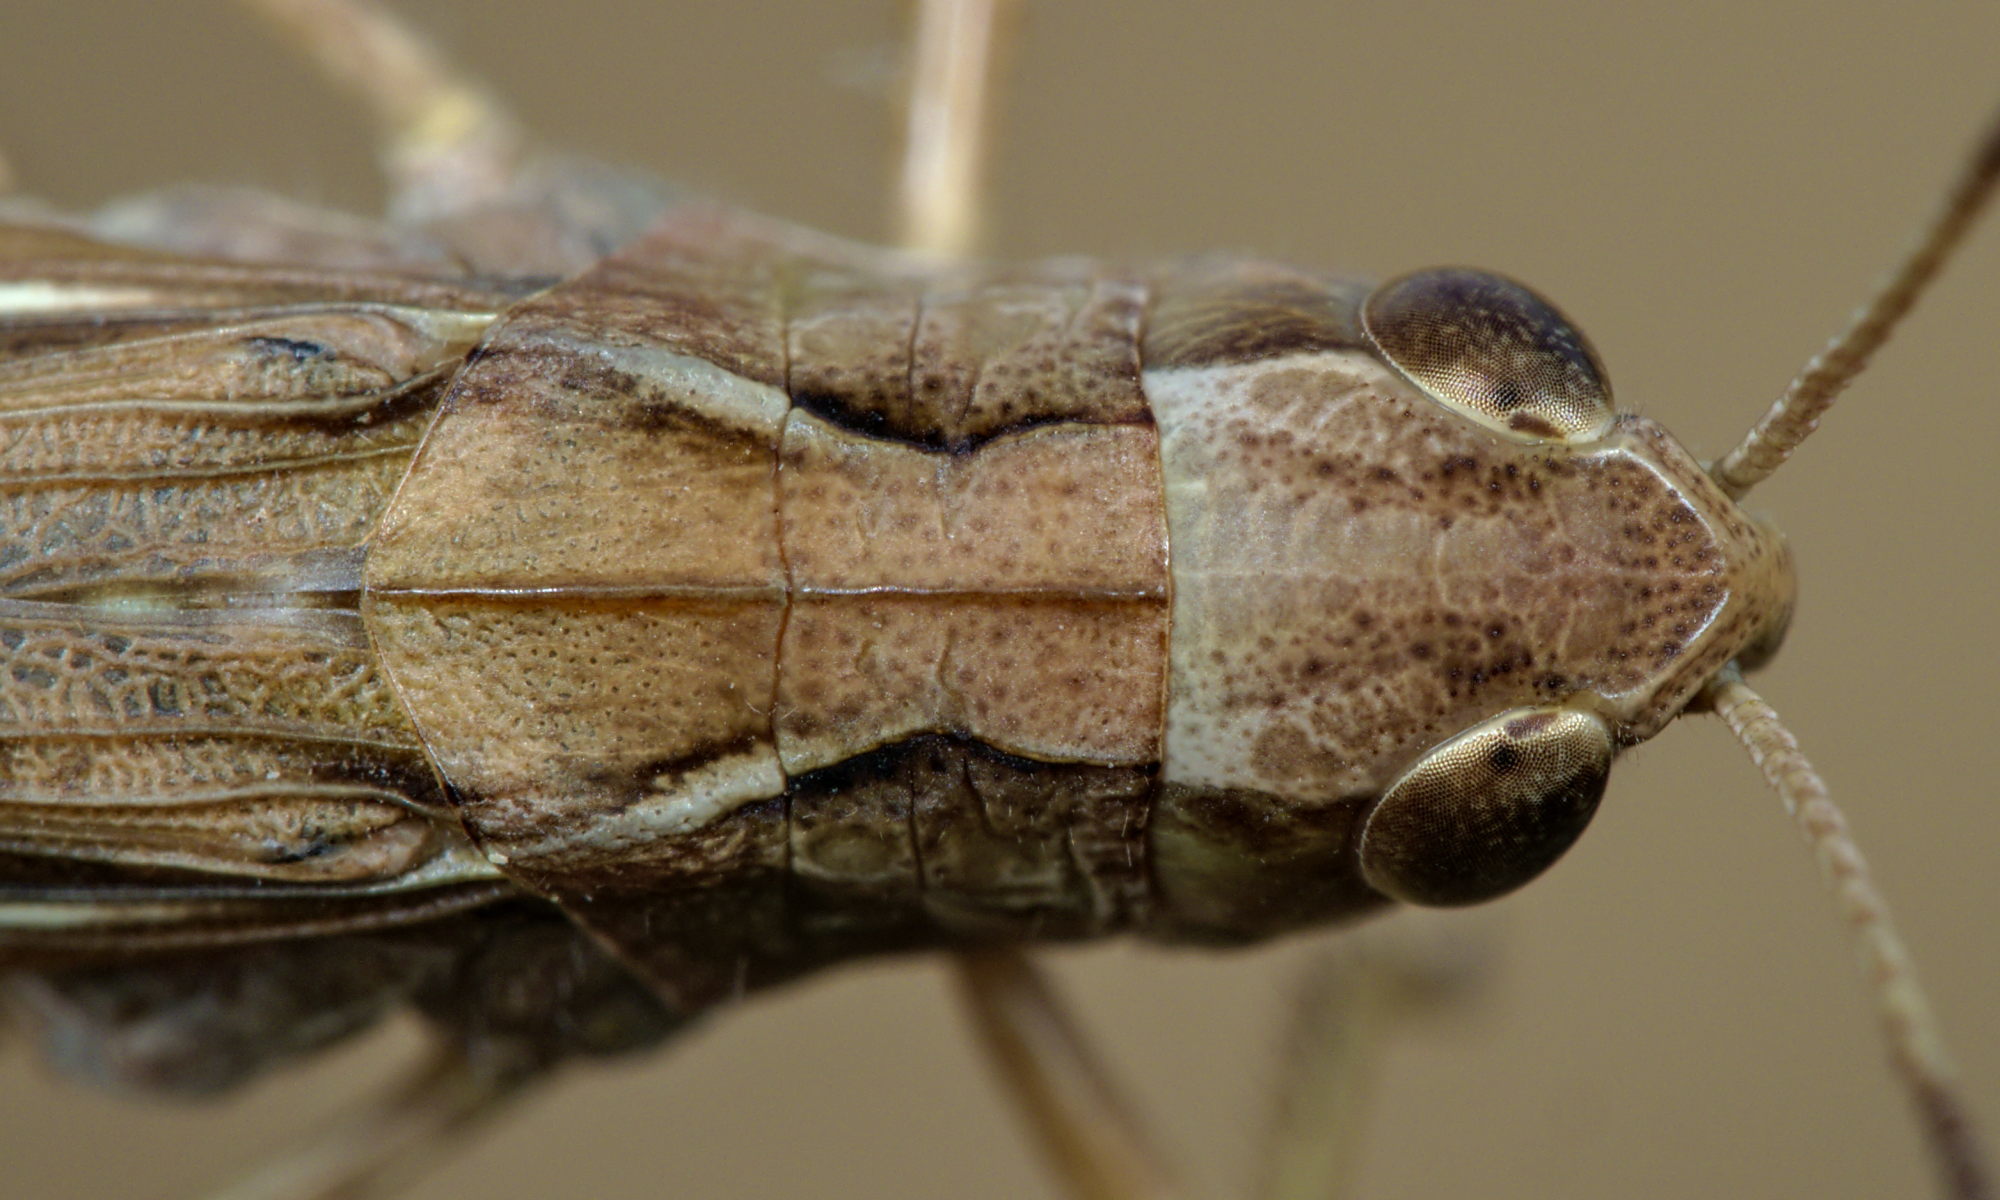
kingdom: Animalia
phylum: Arthropoda
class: Insecta
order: Orthoptera
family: Acrididae
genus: Stauroderus
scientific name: Stauroderus scalaris
